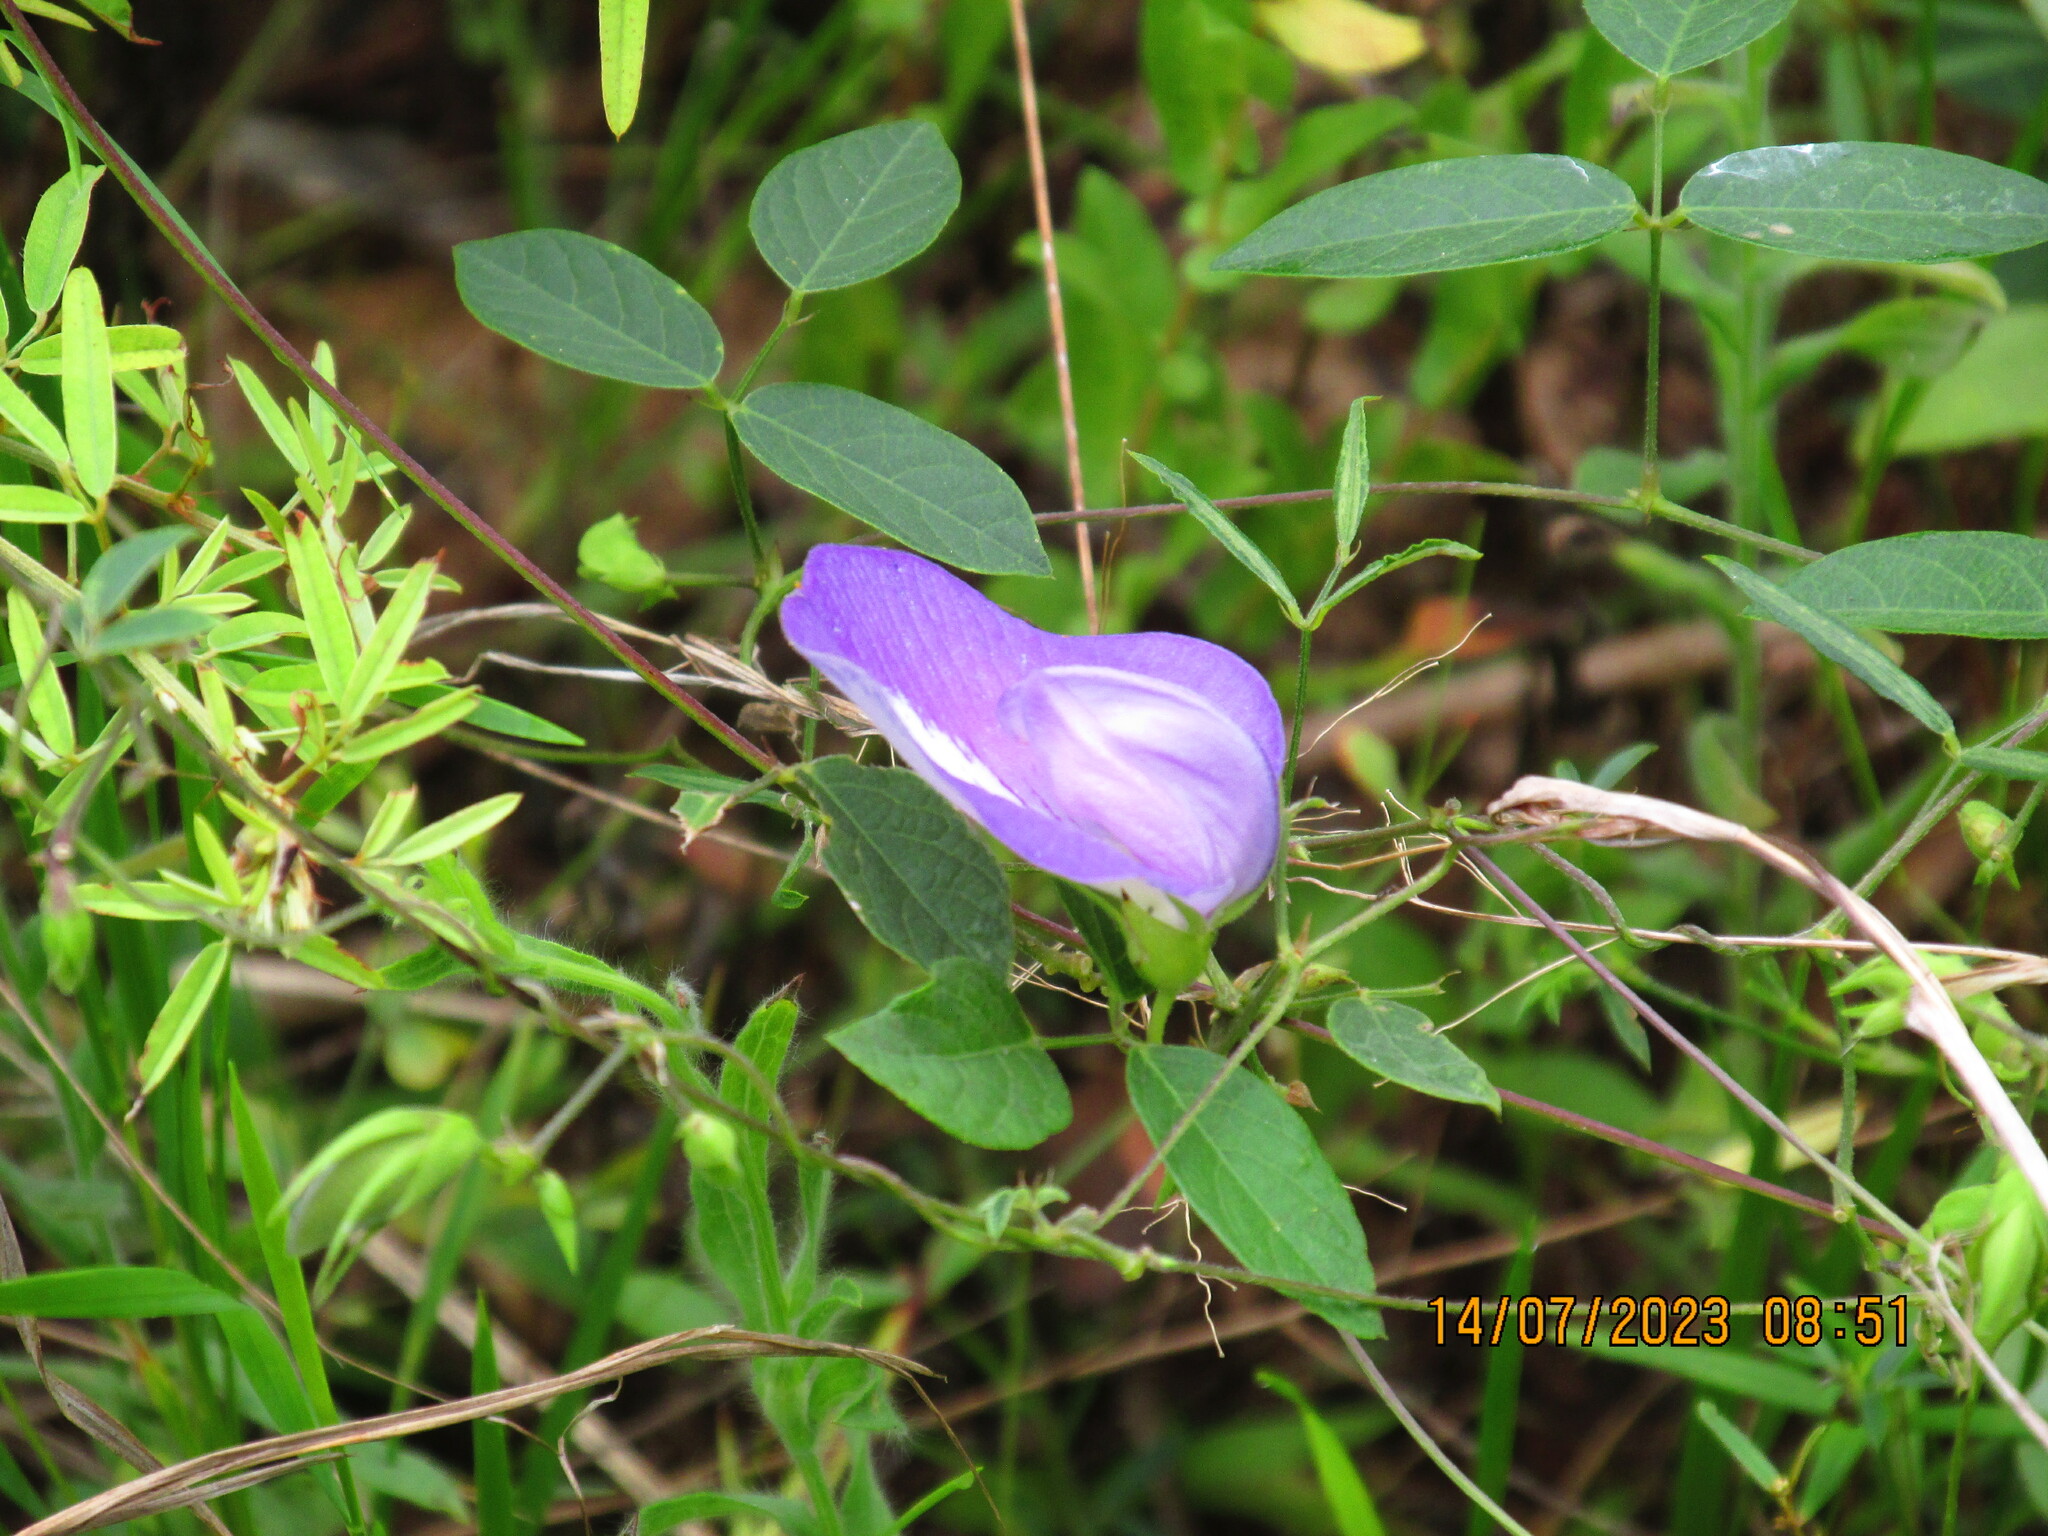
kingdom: Plantae
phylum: Tracheophyta
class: Magnoliopsida
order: Fabales
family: Fabaceae
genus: Centrosema
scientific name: Centrosema virginianum
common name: Butterfly-pea
